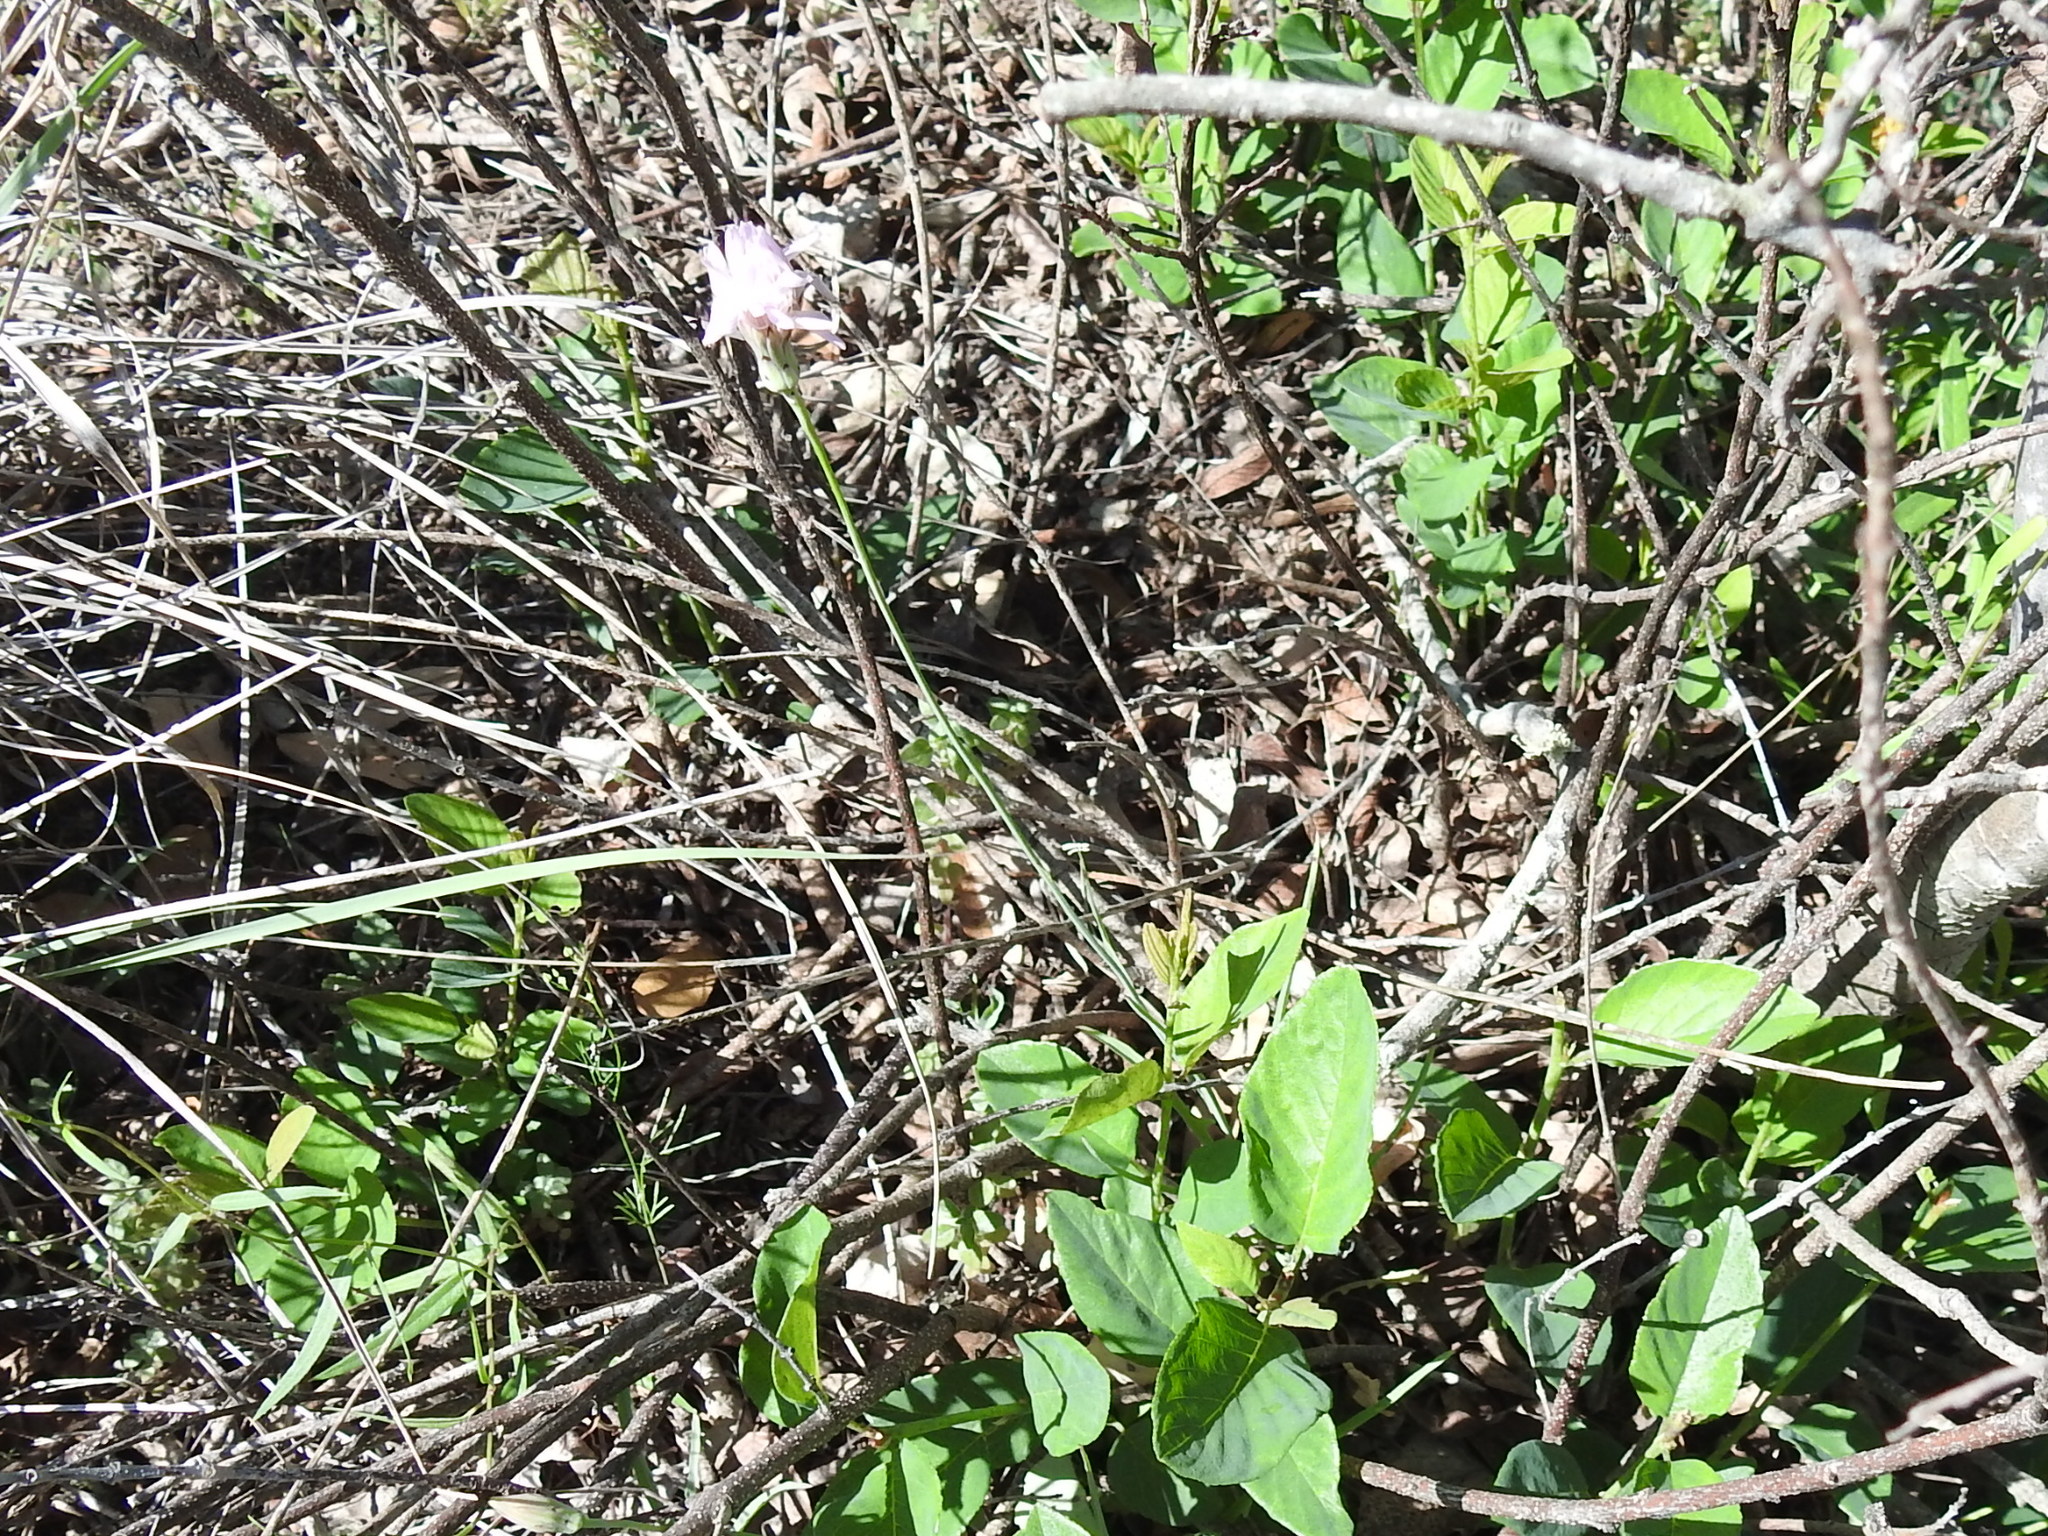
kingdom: Plantae
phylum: Tracheophyta
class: Magnoliopsida
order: Asterales
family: Asteraceae
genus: Pinaropappus
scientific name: Pinaropappus roseus
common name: Rock-lettuce
